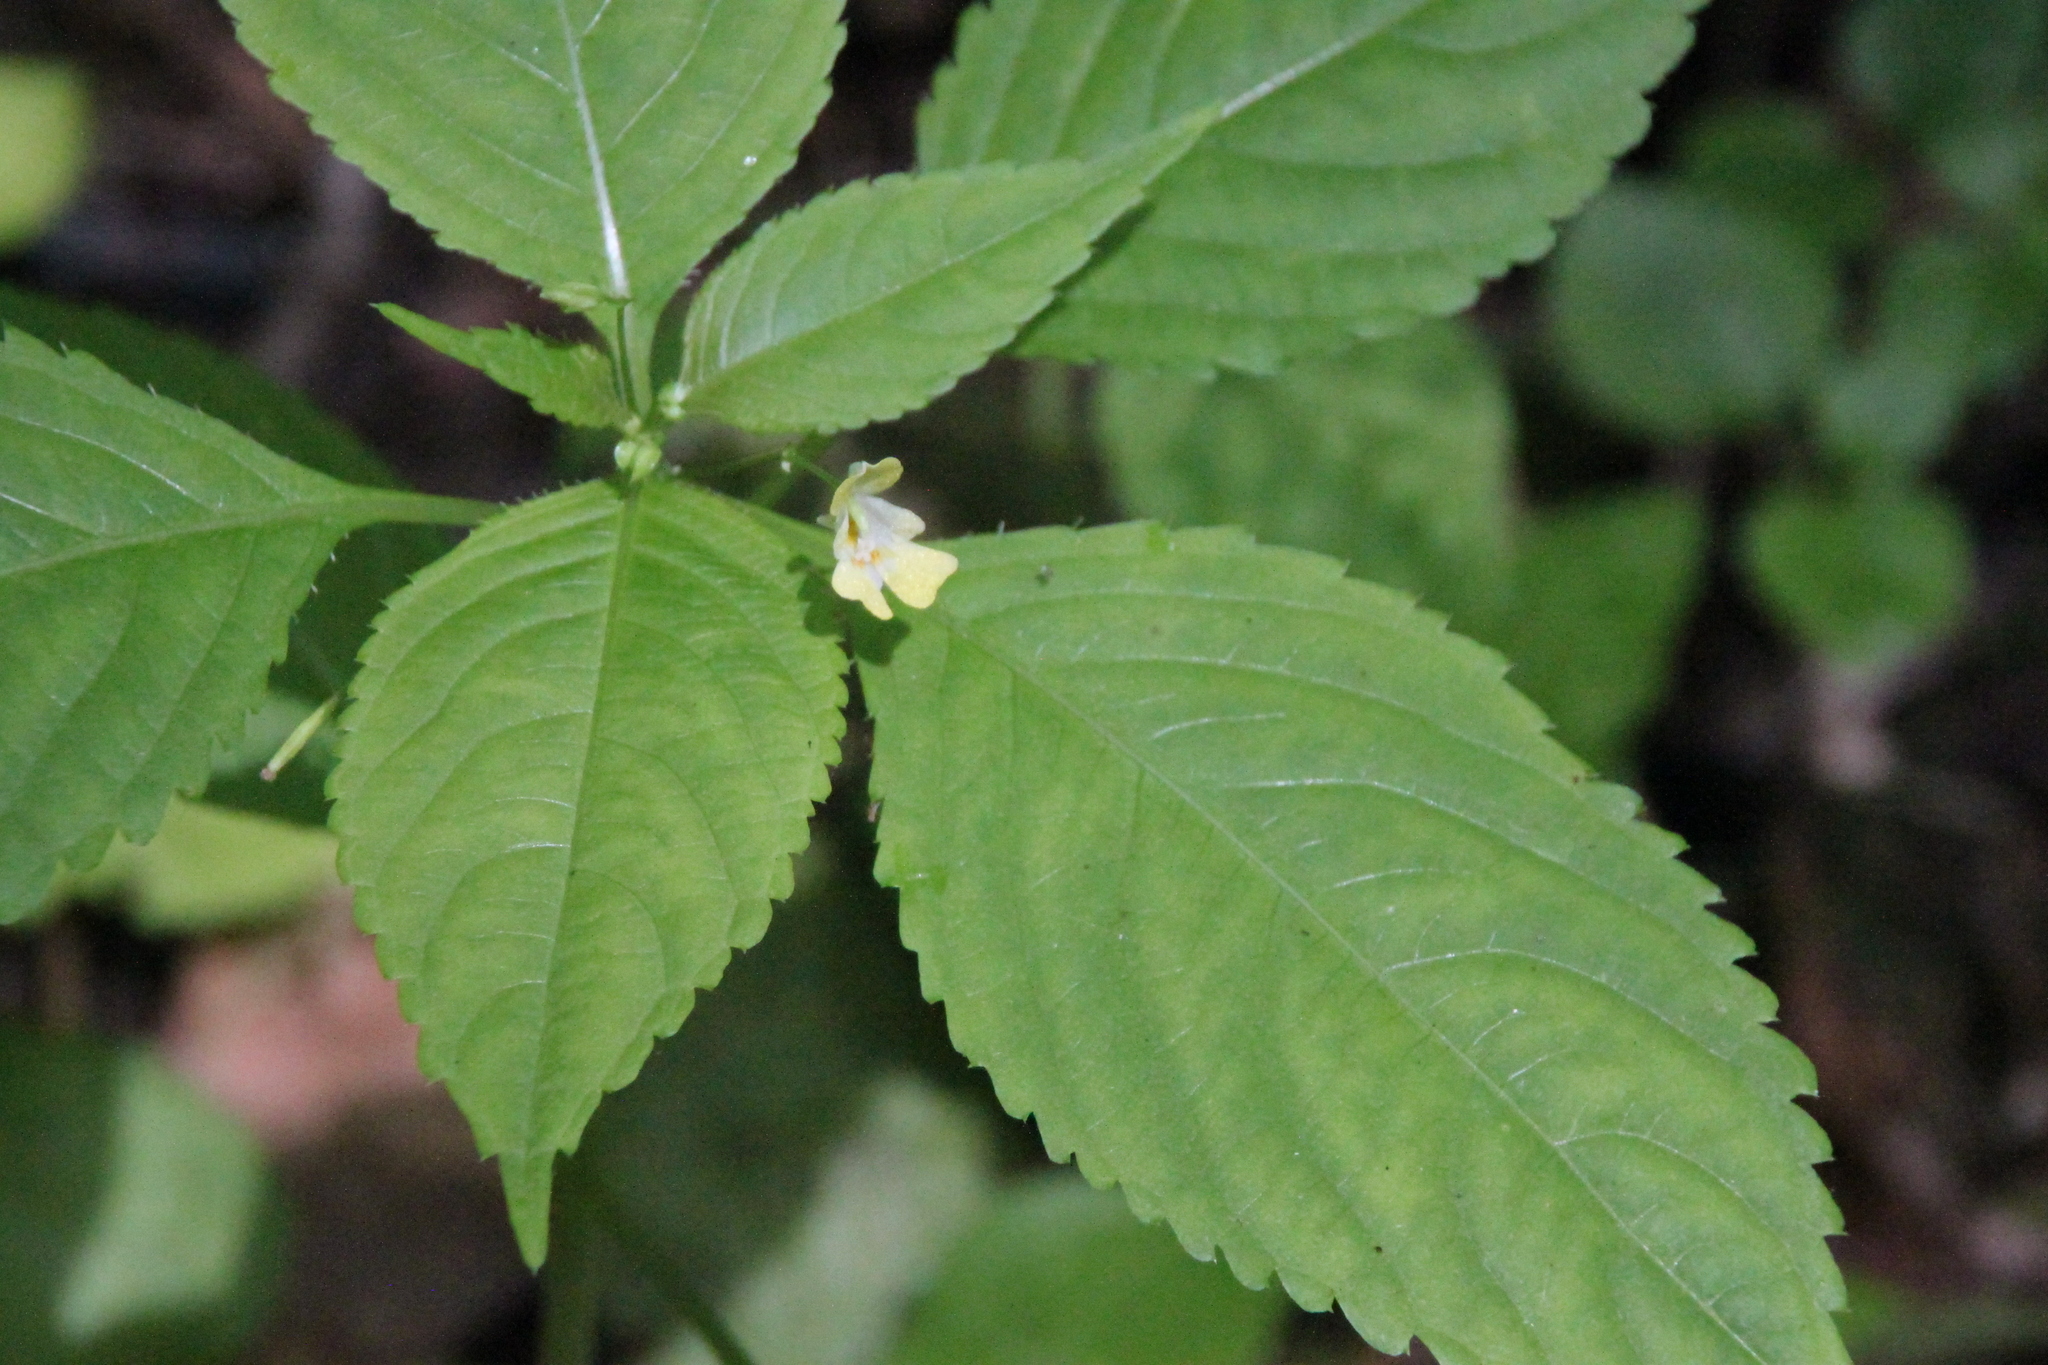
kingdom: Plantae
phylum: Tracheophyta
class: Magnoliopsida
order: Ericales
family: Balsaminaceae
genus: Impatiens
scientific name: Impatiens parviflora
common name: Small balsam
